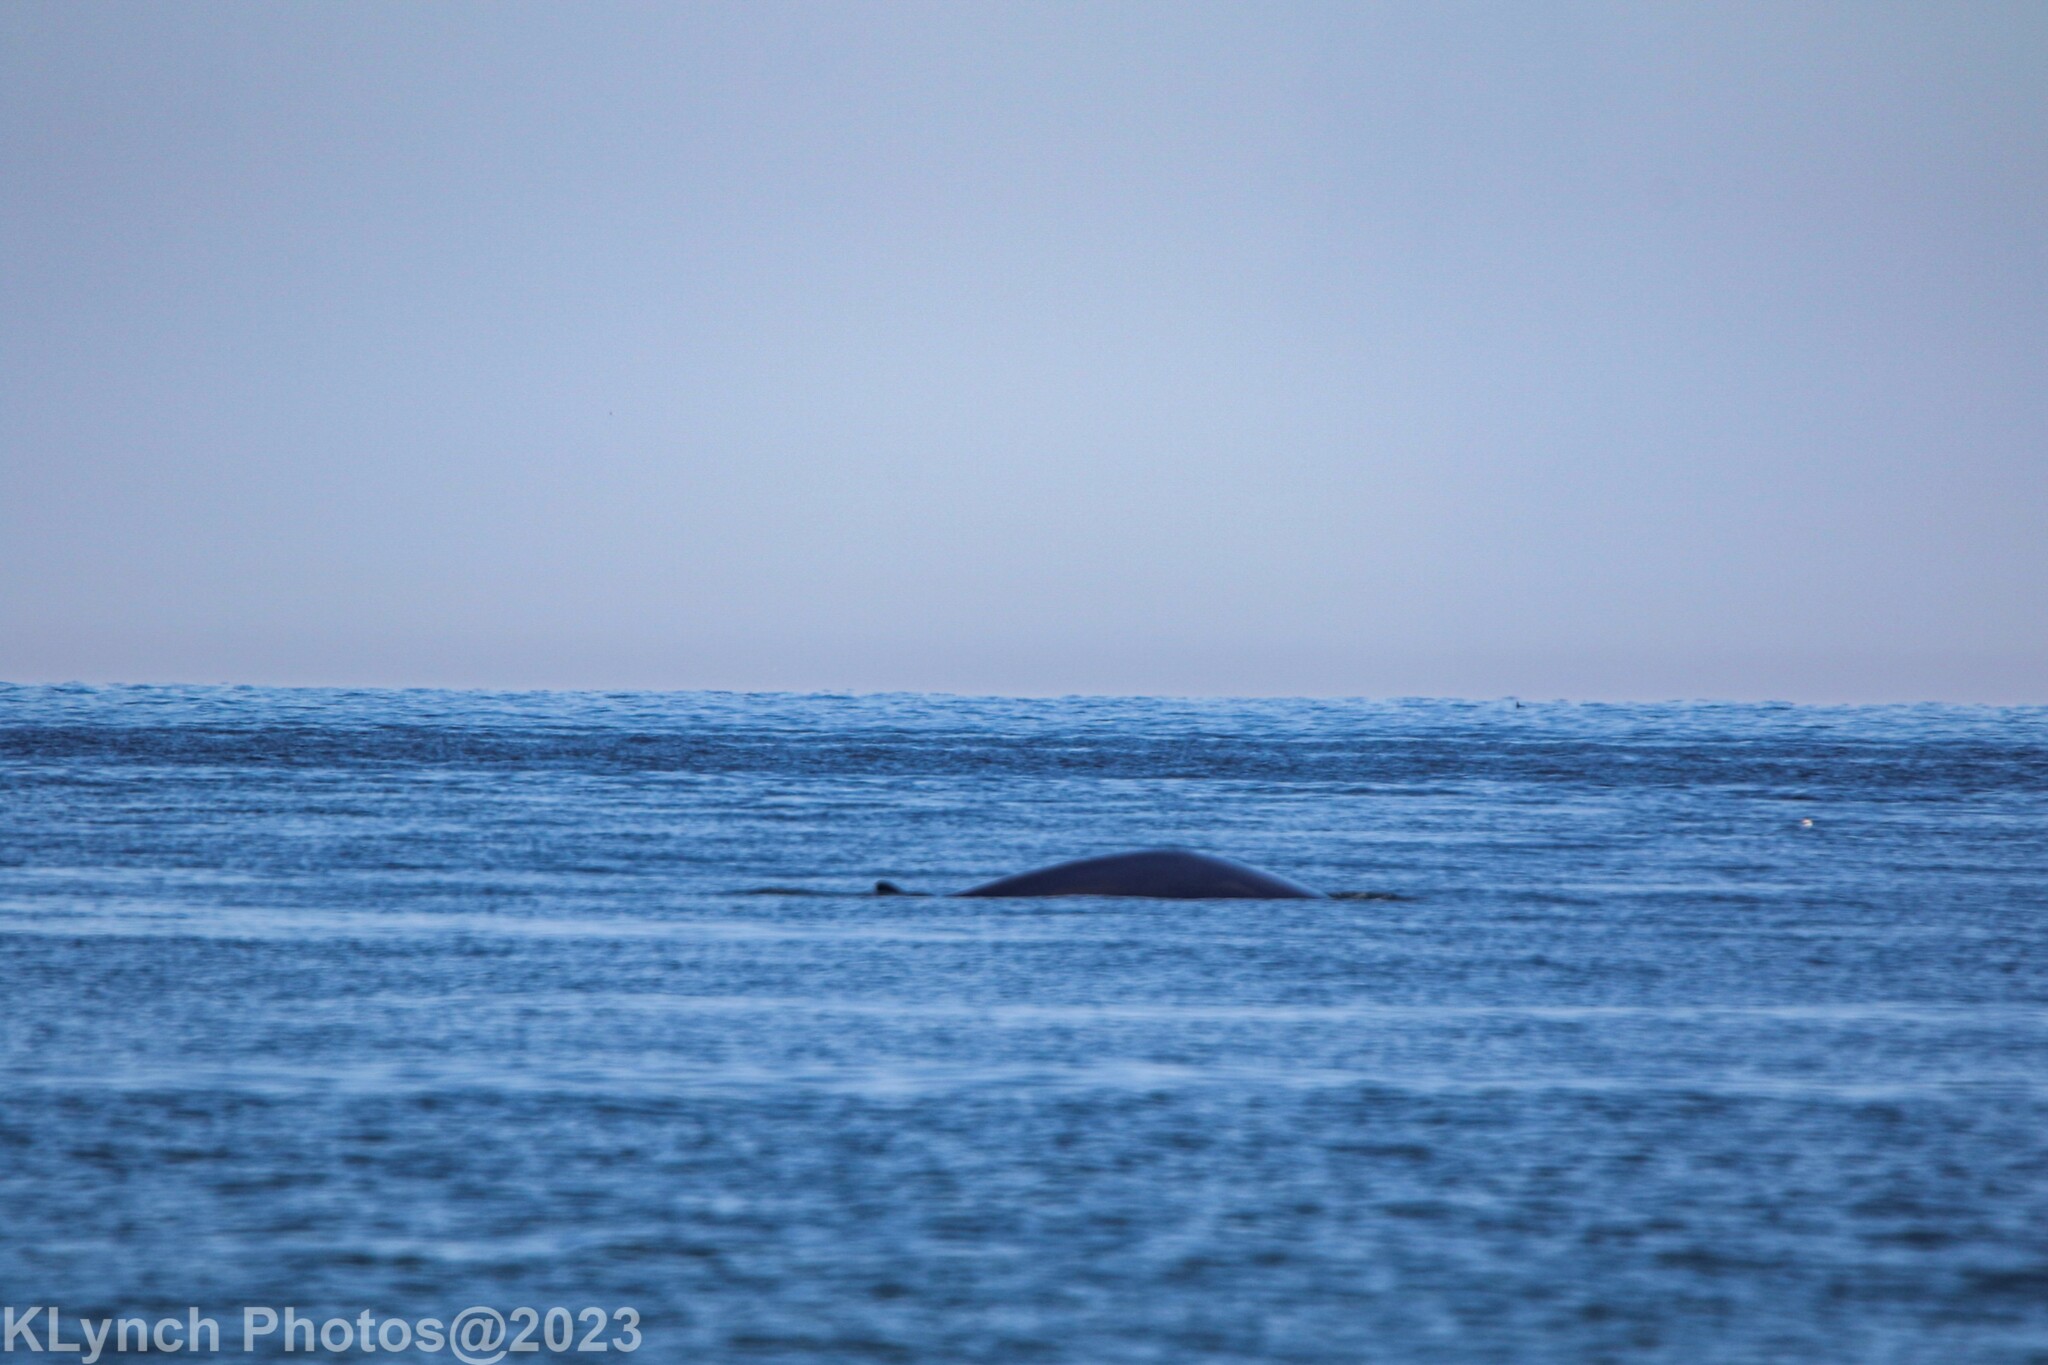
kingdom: Animalia
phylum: Chordata
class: Mammalia
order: Cetacea
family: Balaenopteridae
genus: Balaenoptera
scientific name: Balaenoptera physalus
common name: Fin whale
